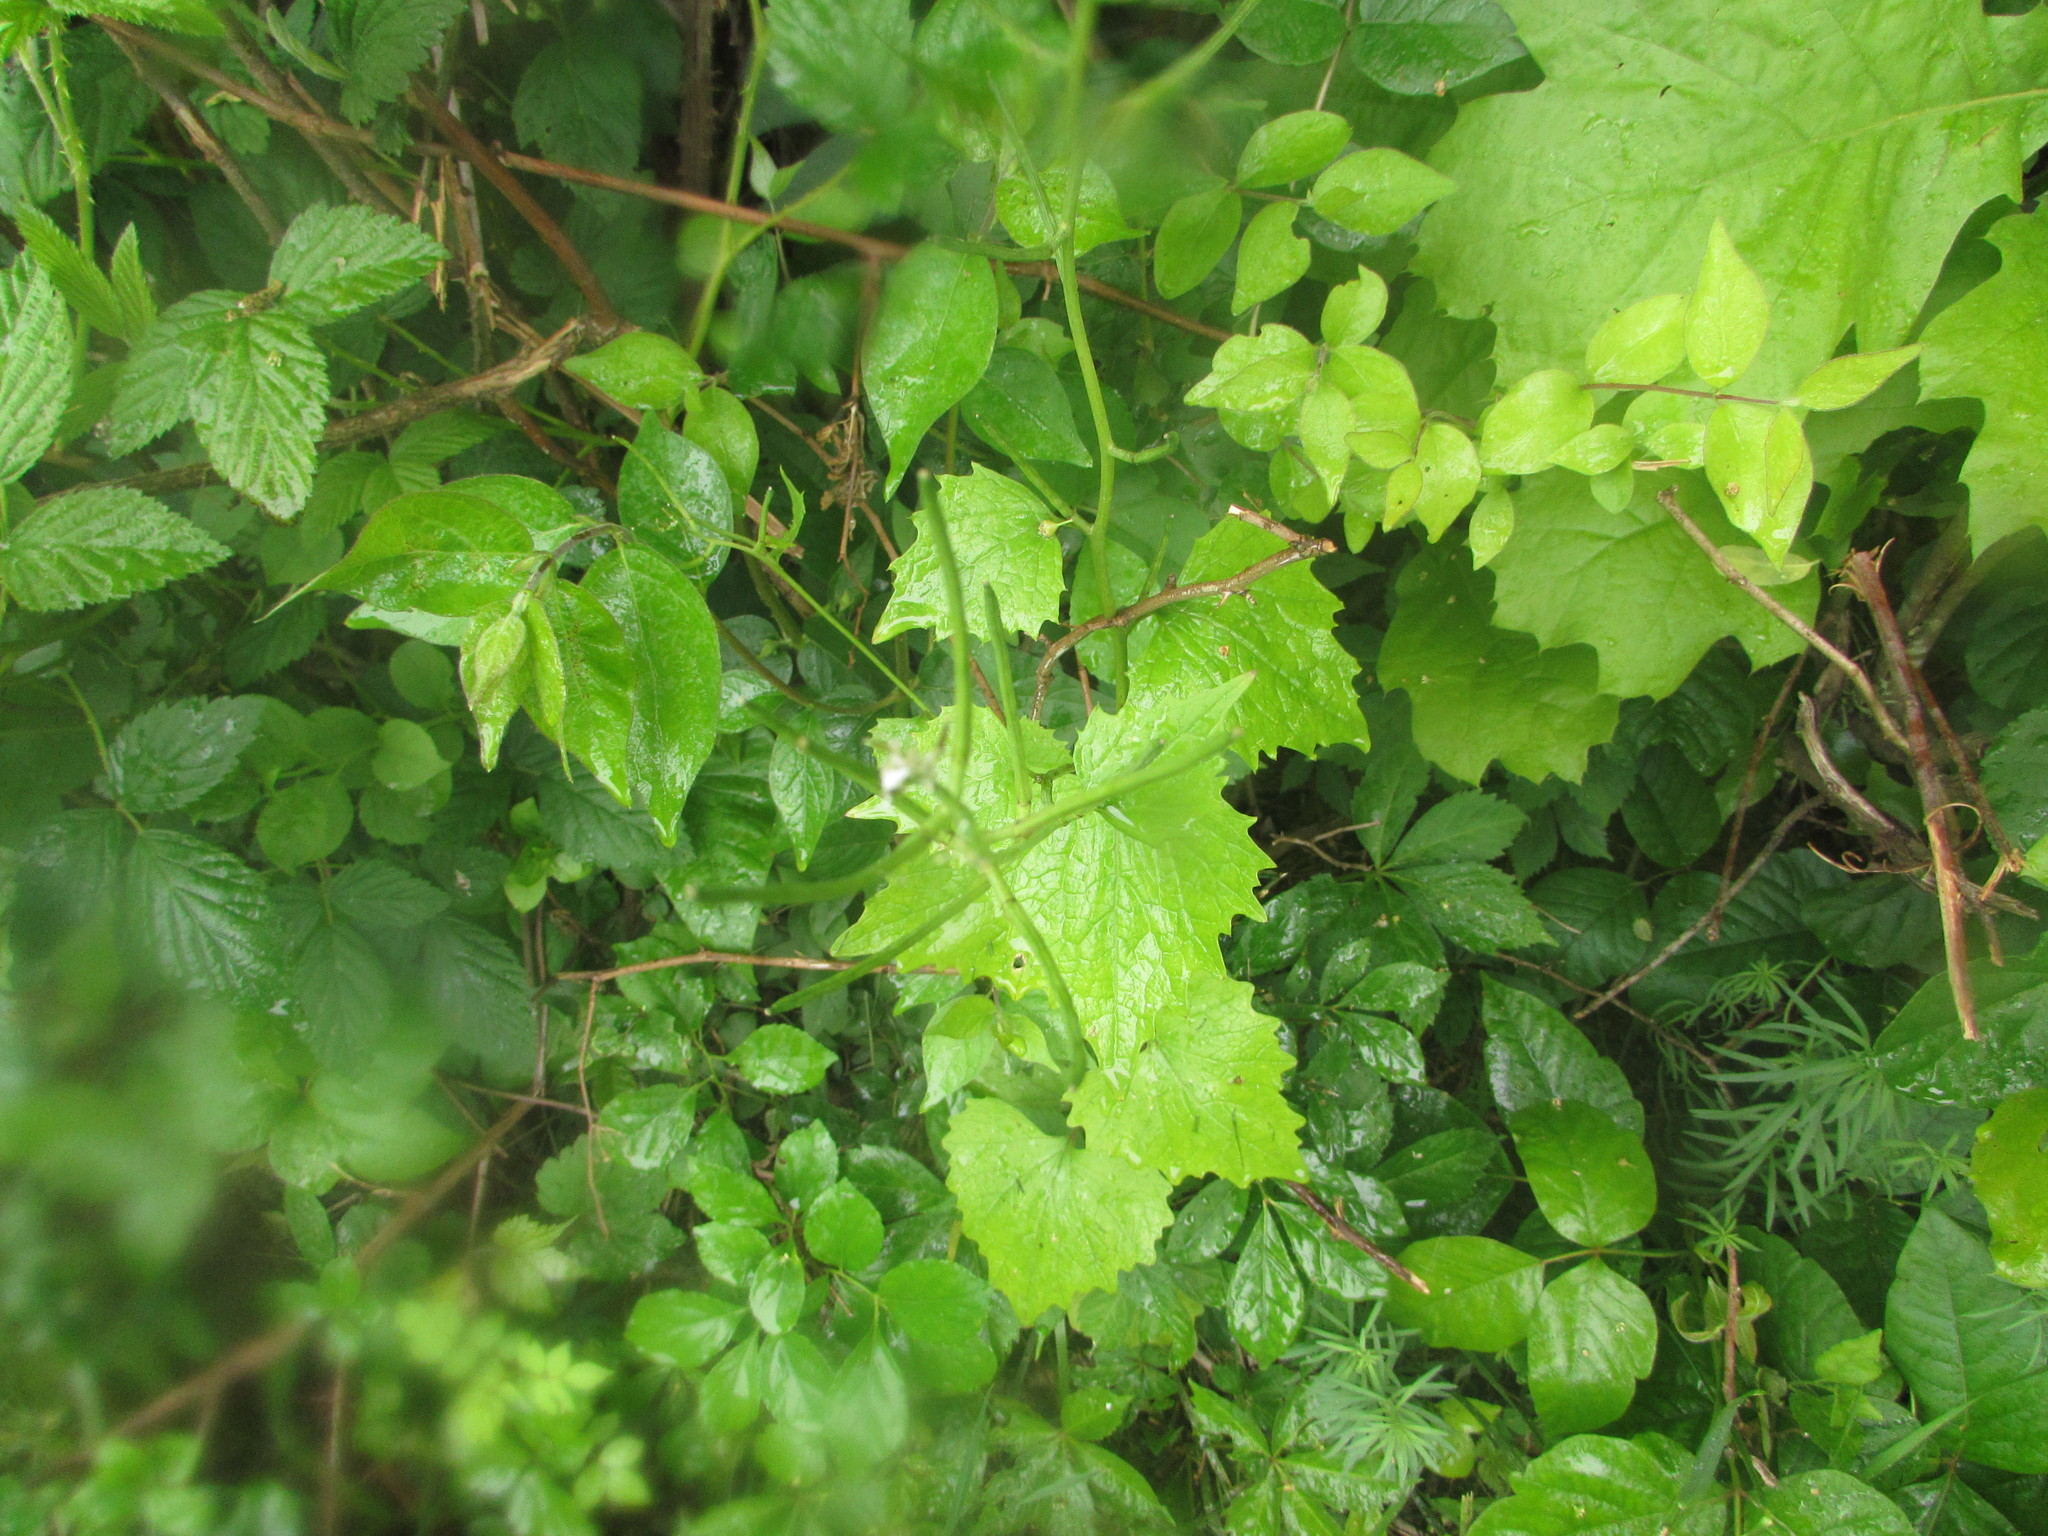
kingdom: Plantae
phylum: Tracheophyta
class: Magnoliopsida
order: Brassicales
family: Brassicaceae
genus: Alliaria
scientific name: Alliaria petiolata
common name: Garlic mustard
